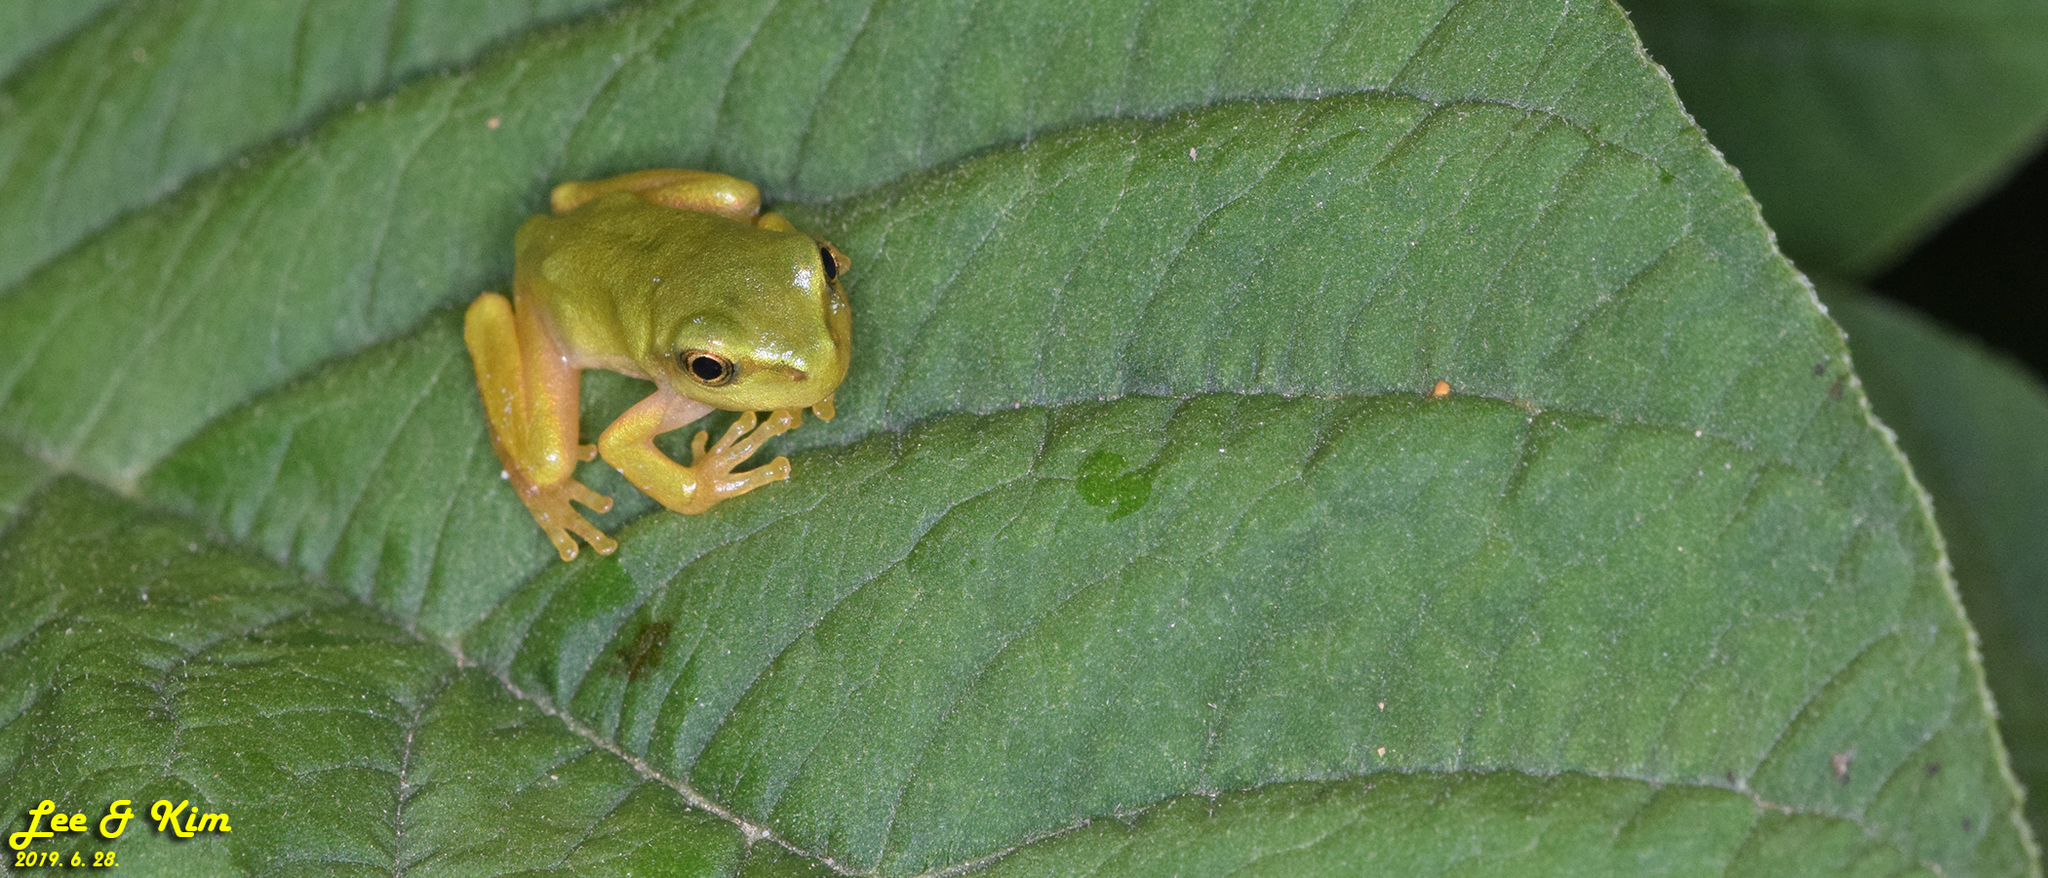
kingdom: Animalia
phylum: Chordata
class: Amphibia
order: Anura
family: Hylidae
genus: Dryophytes
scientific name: Dryophytes japonicus
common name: Japanese treefrog
